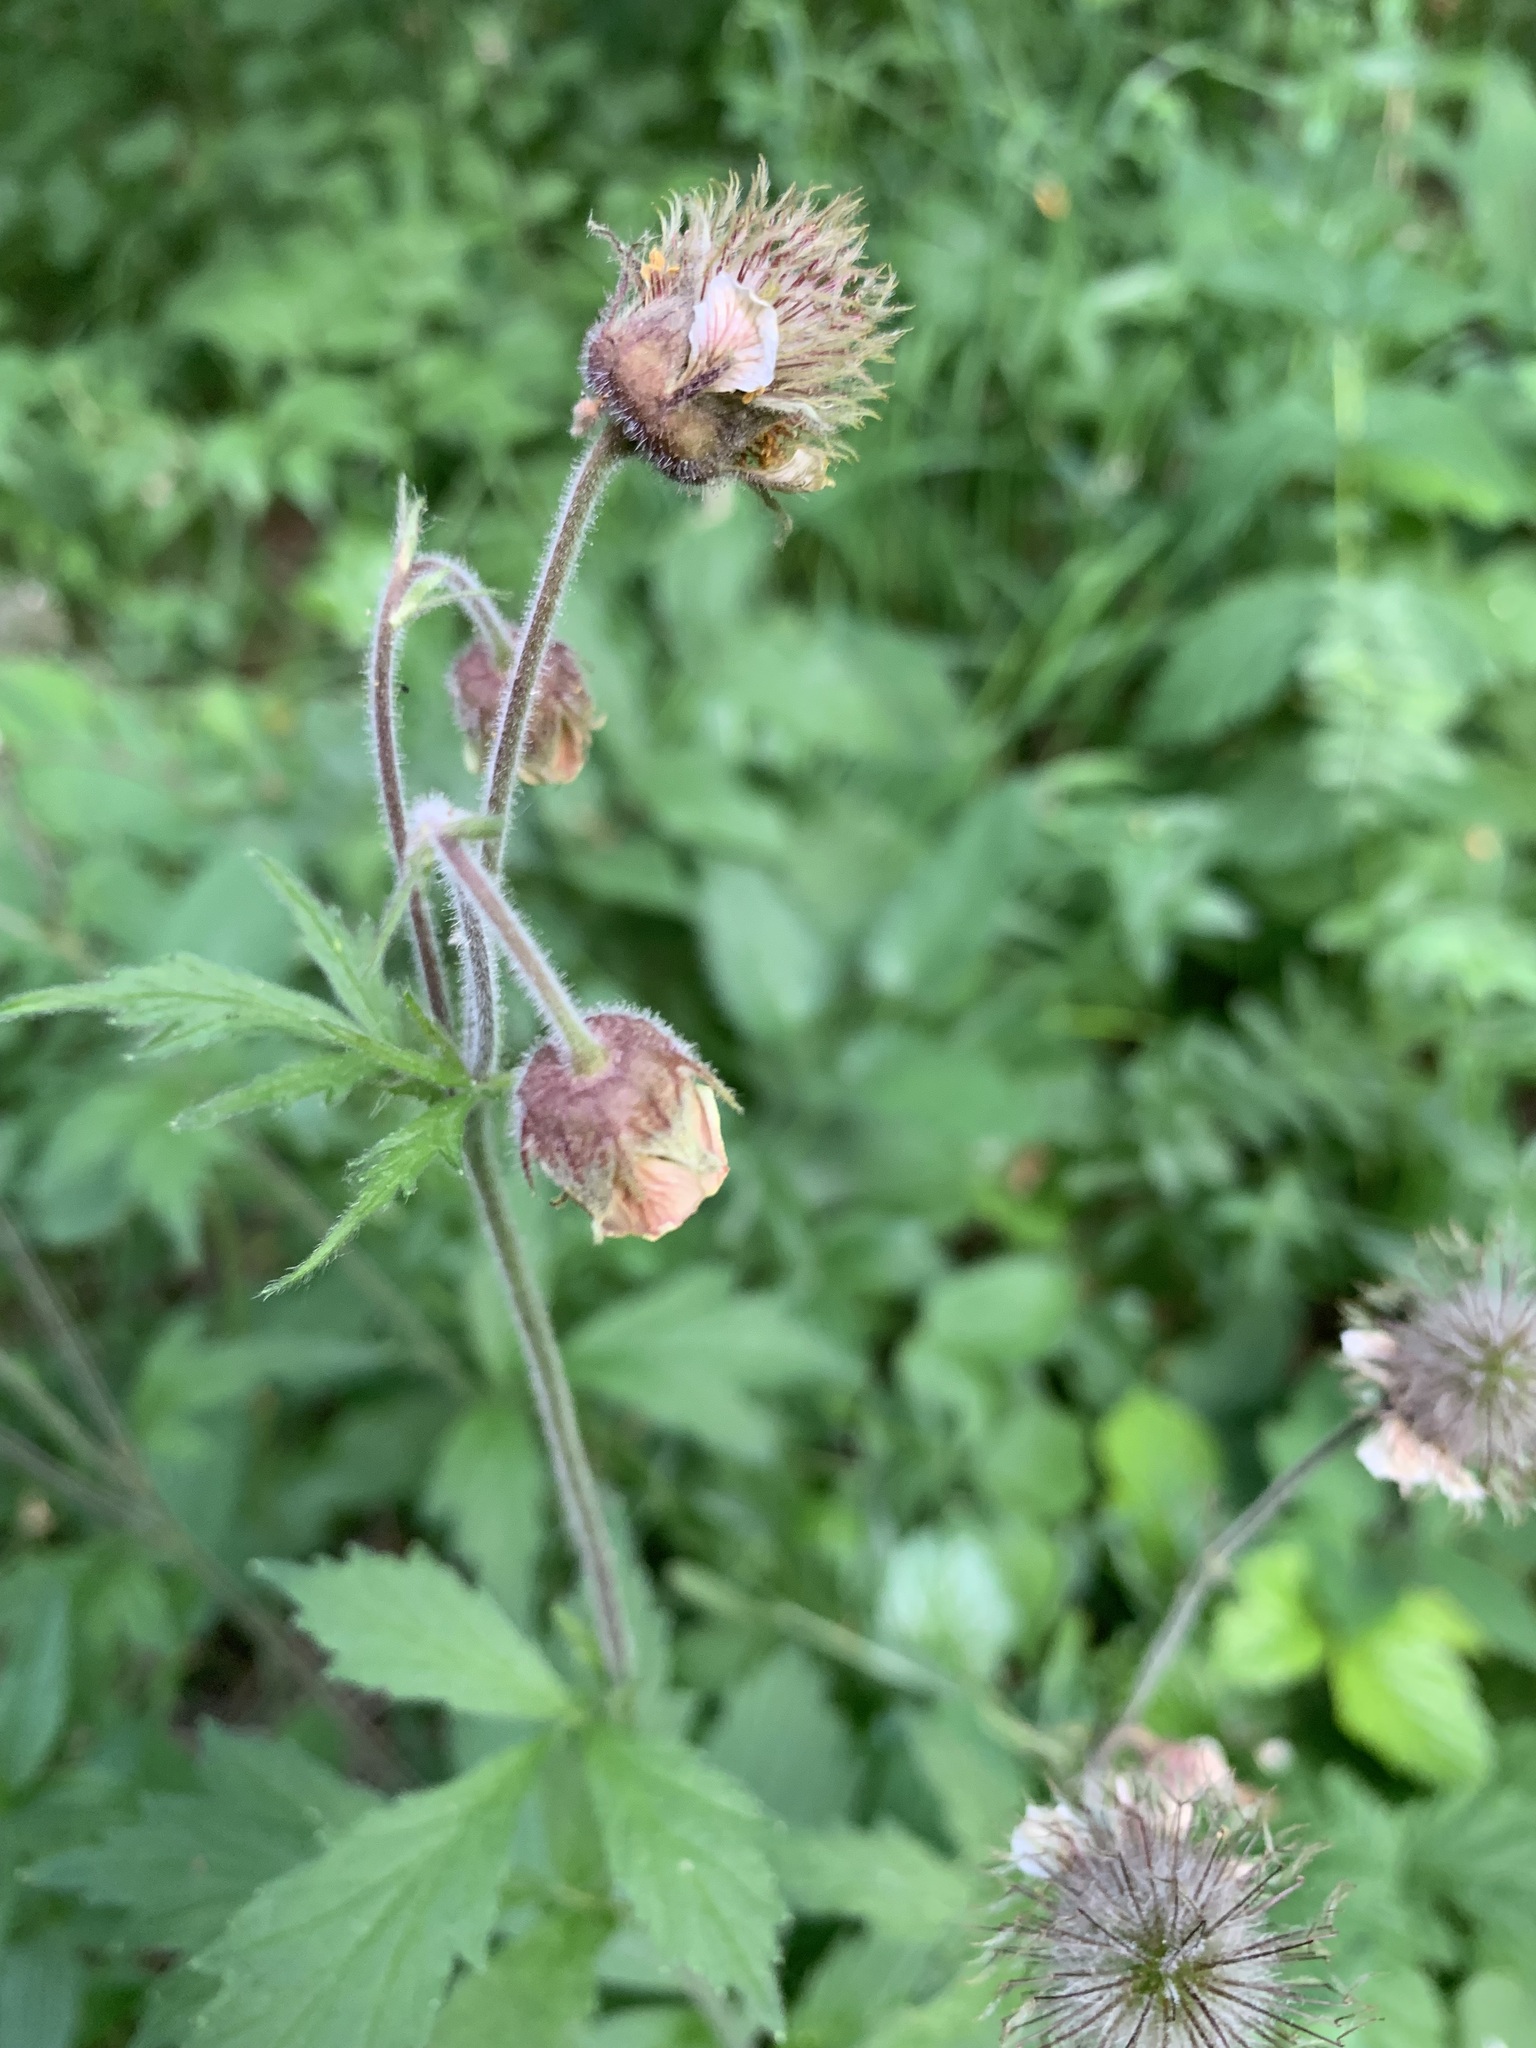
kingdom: Plantae
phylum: Tracheophyta
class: Magnoliopsida
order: Rosales
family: Rosaceae
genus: Geum
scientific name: Geum rivale
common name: Water avens
